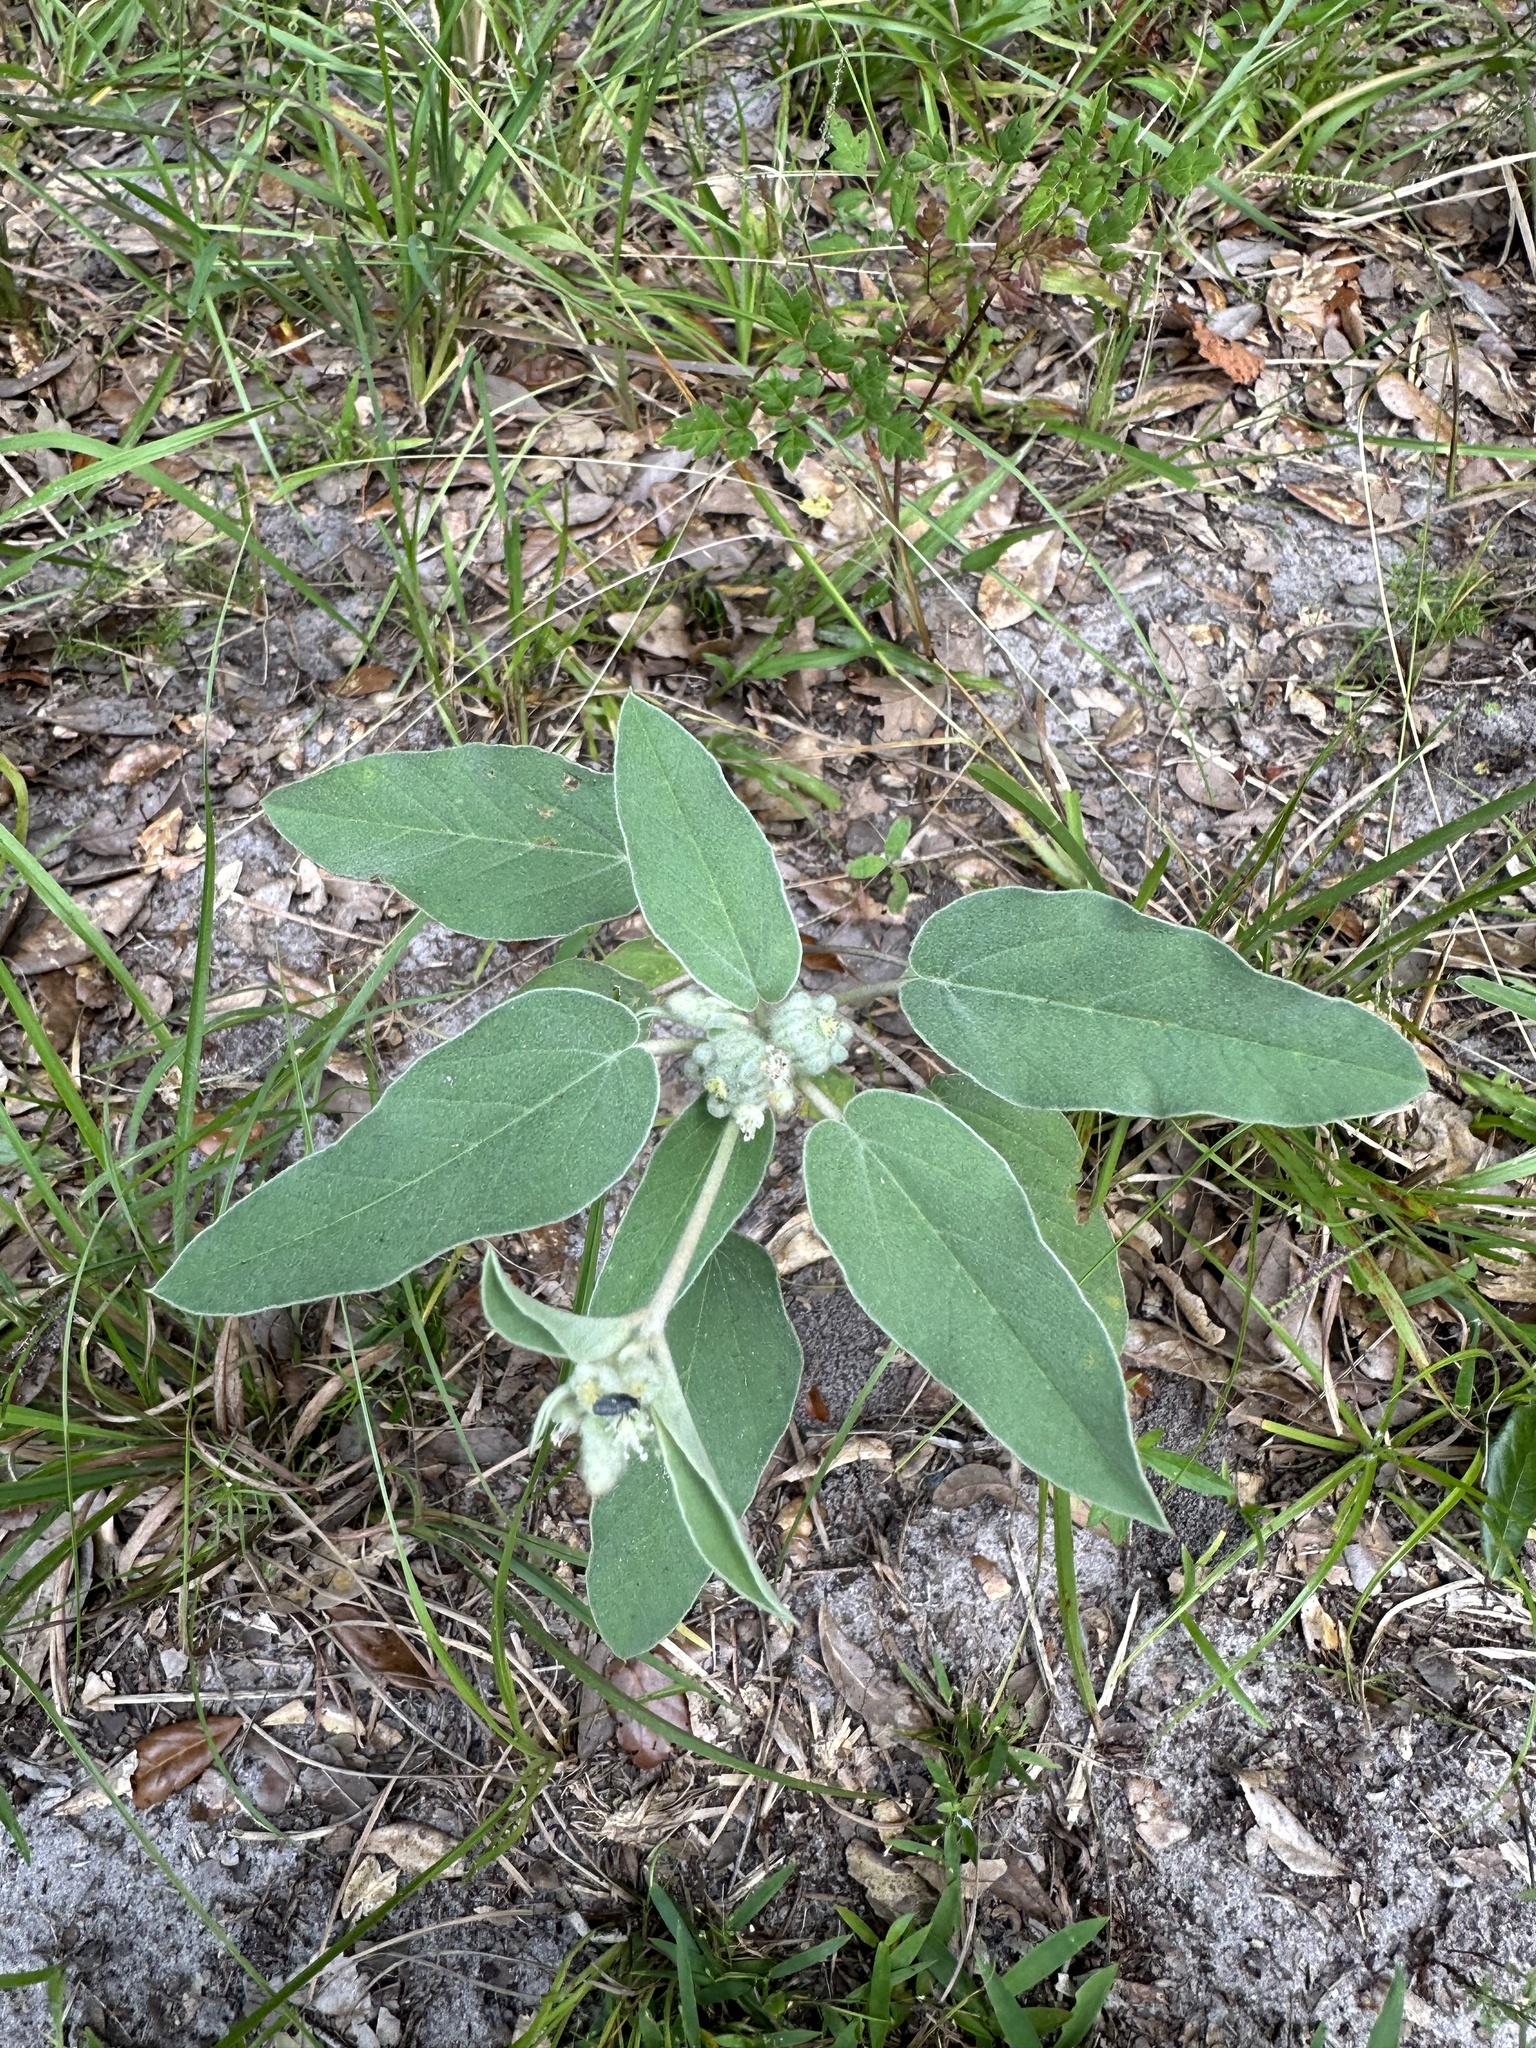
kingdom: Plantae
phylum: Tracheophyta
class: Magnoliopsida
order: Malpighiales
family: Euphorbiaceae
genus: Croton
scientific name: Croton lindheimeri
